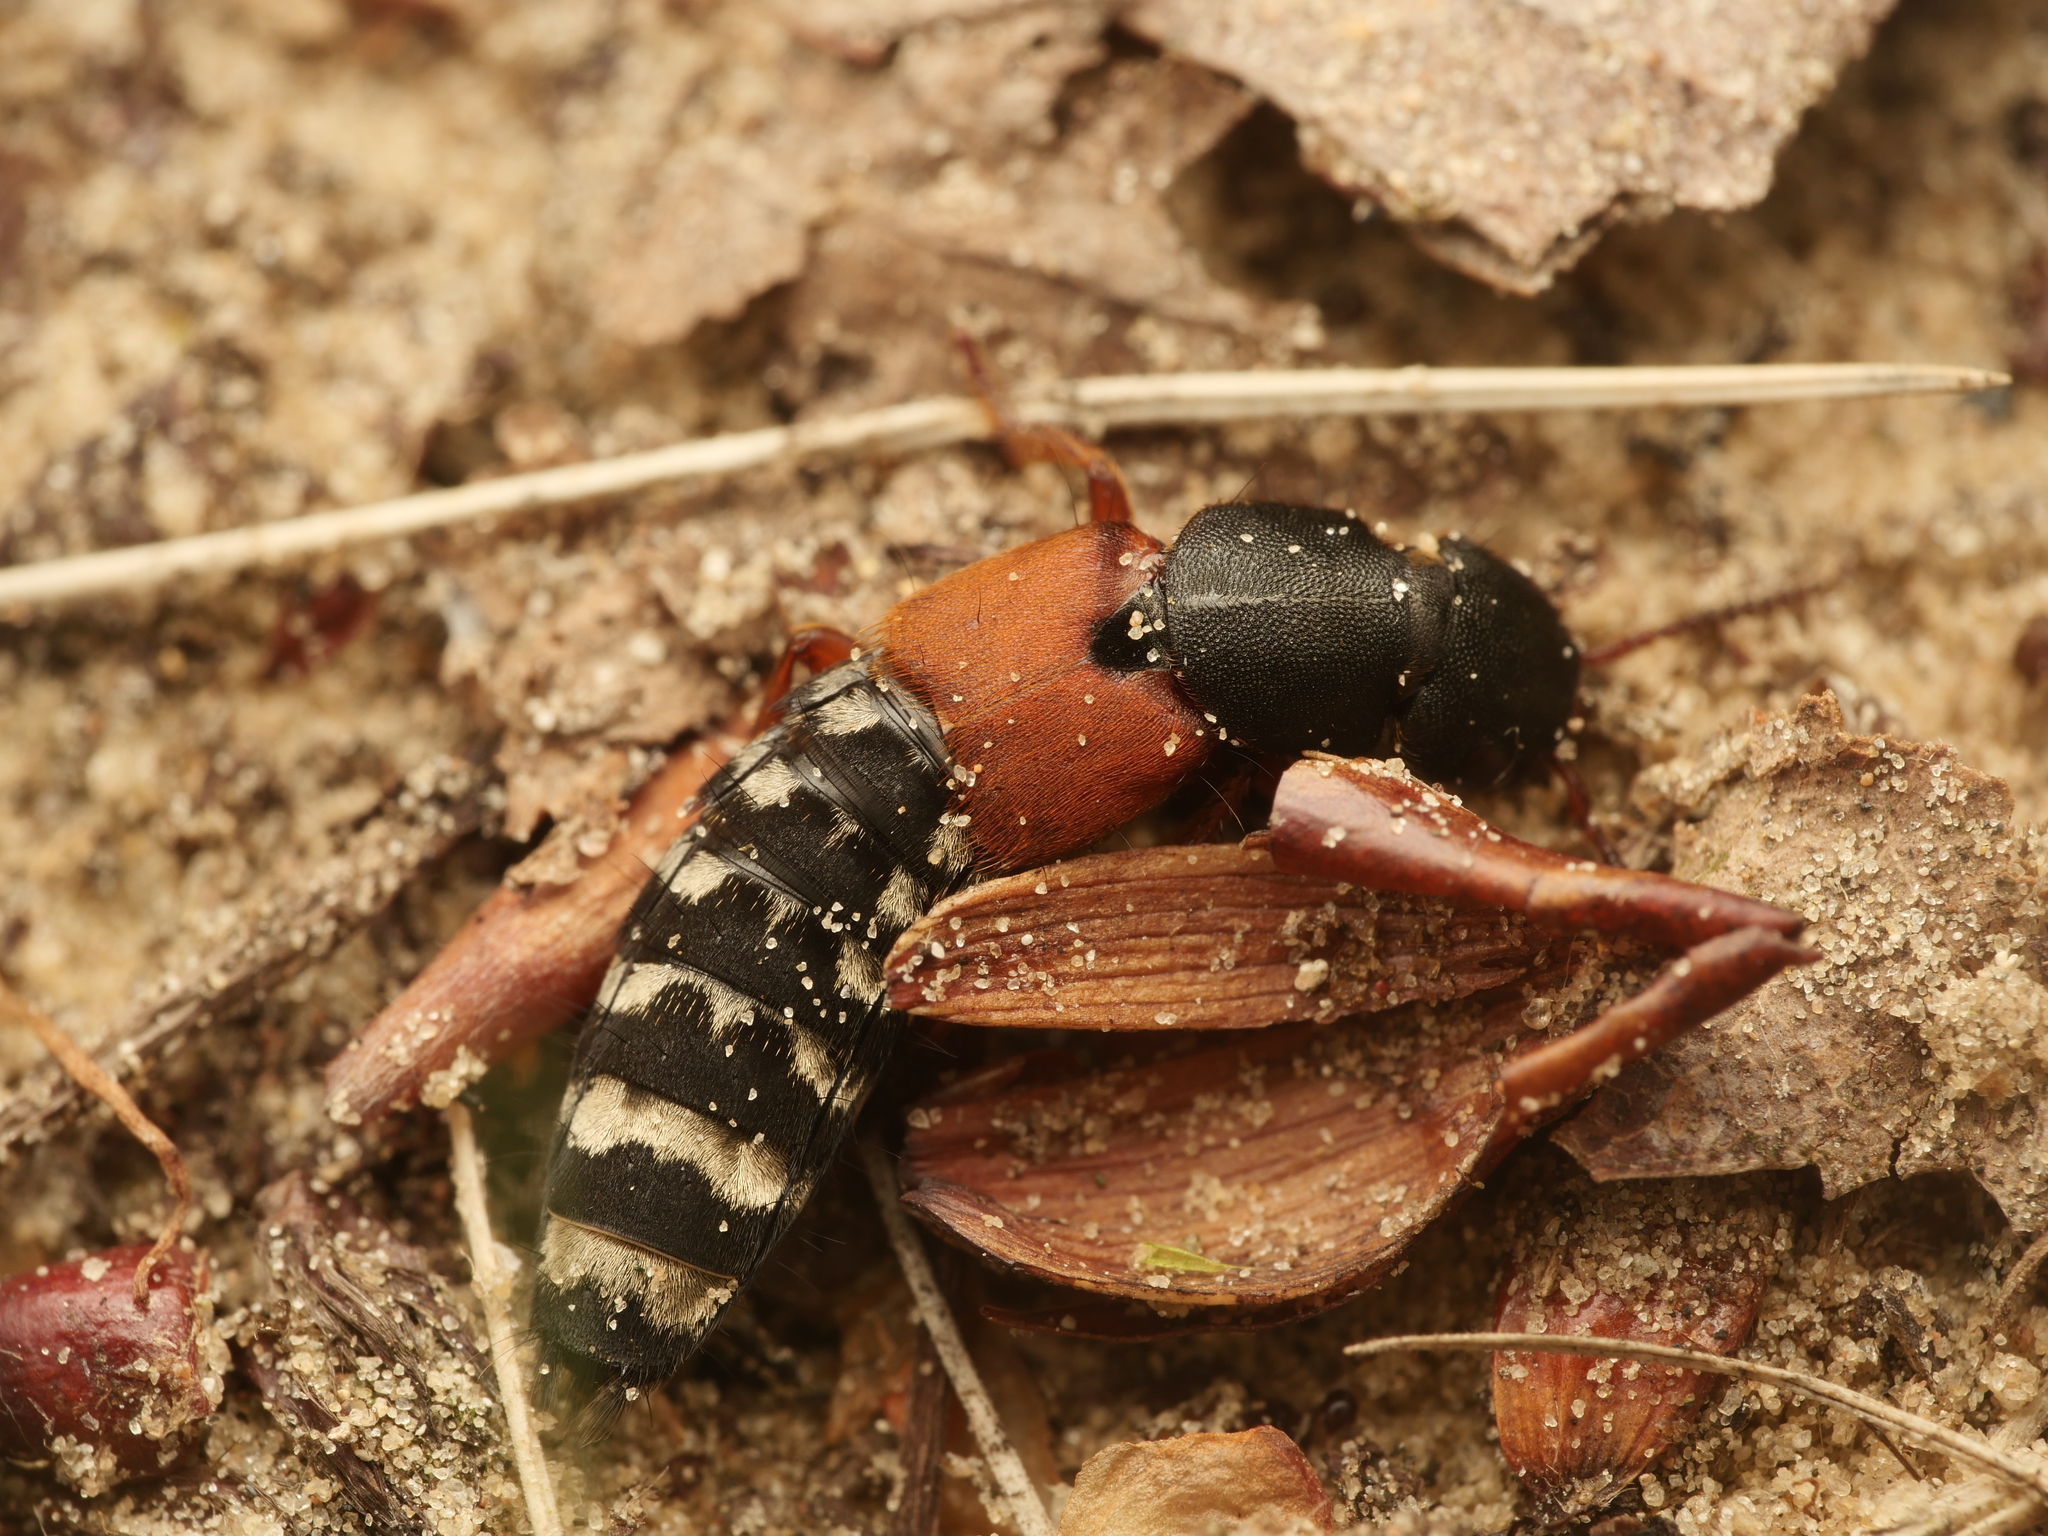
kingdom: Animalia
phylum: Arthropoda
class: Insecta
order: Coleoptera
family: Staphylinidae
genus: Platydracus
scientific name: Platydracus stercorarius
